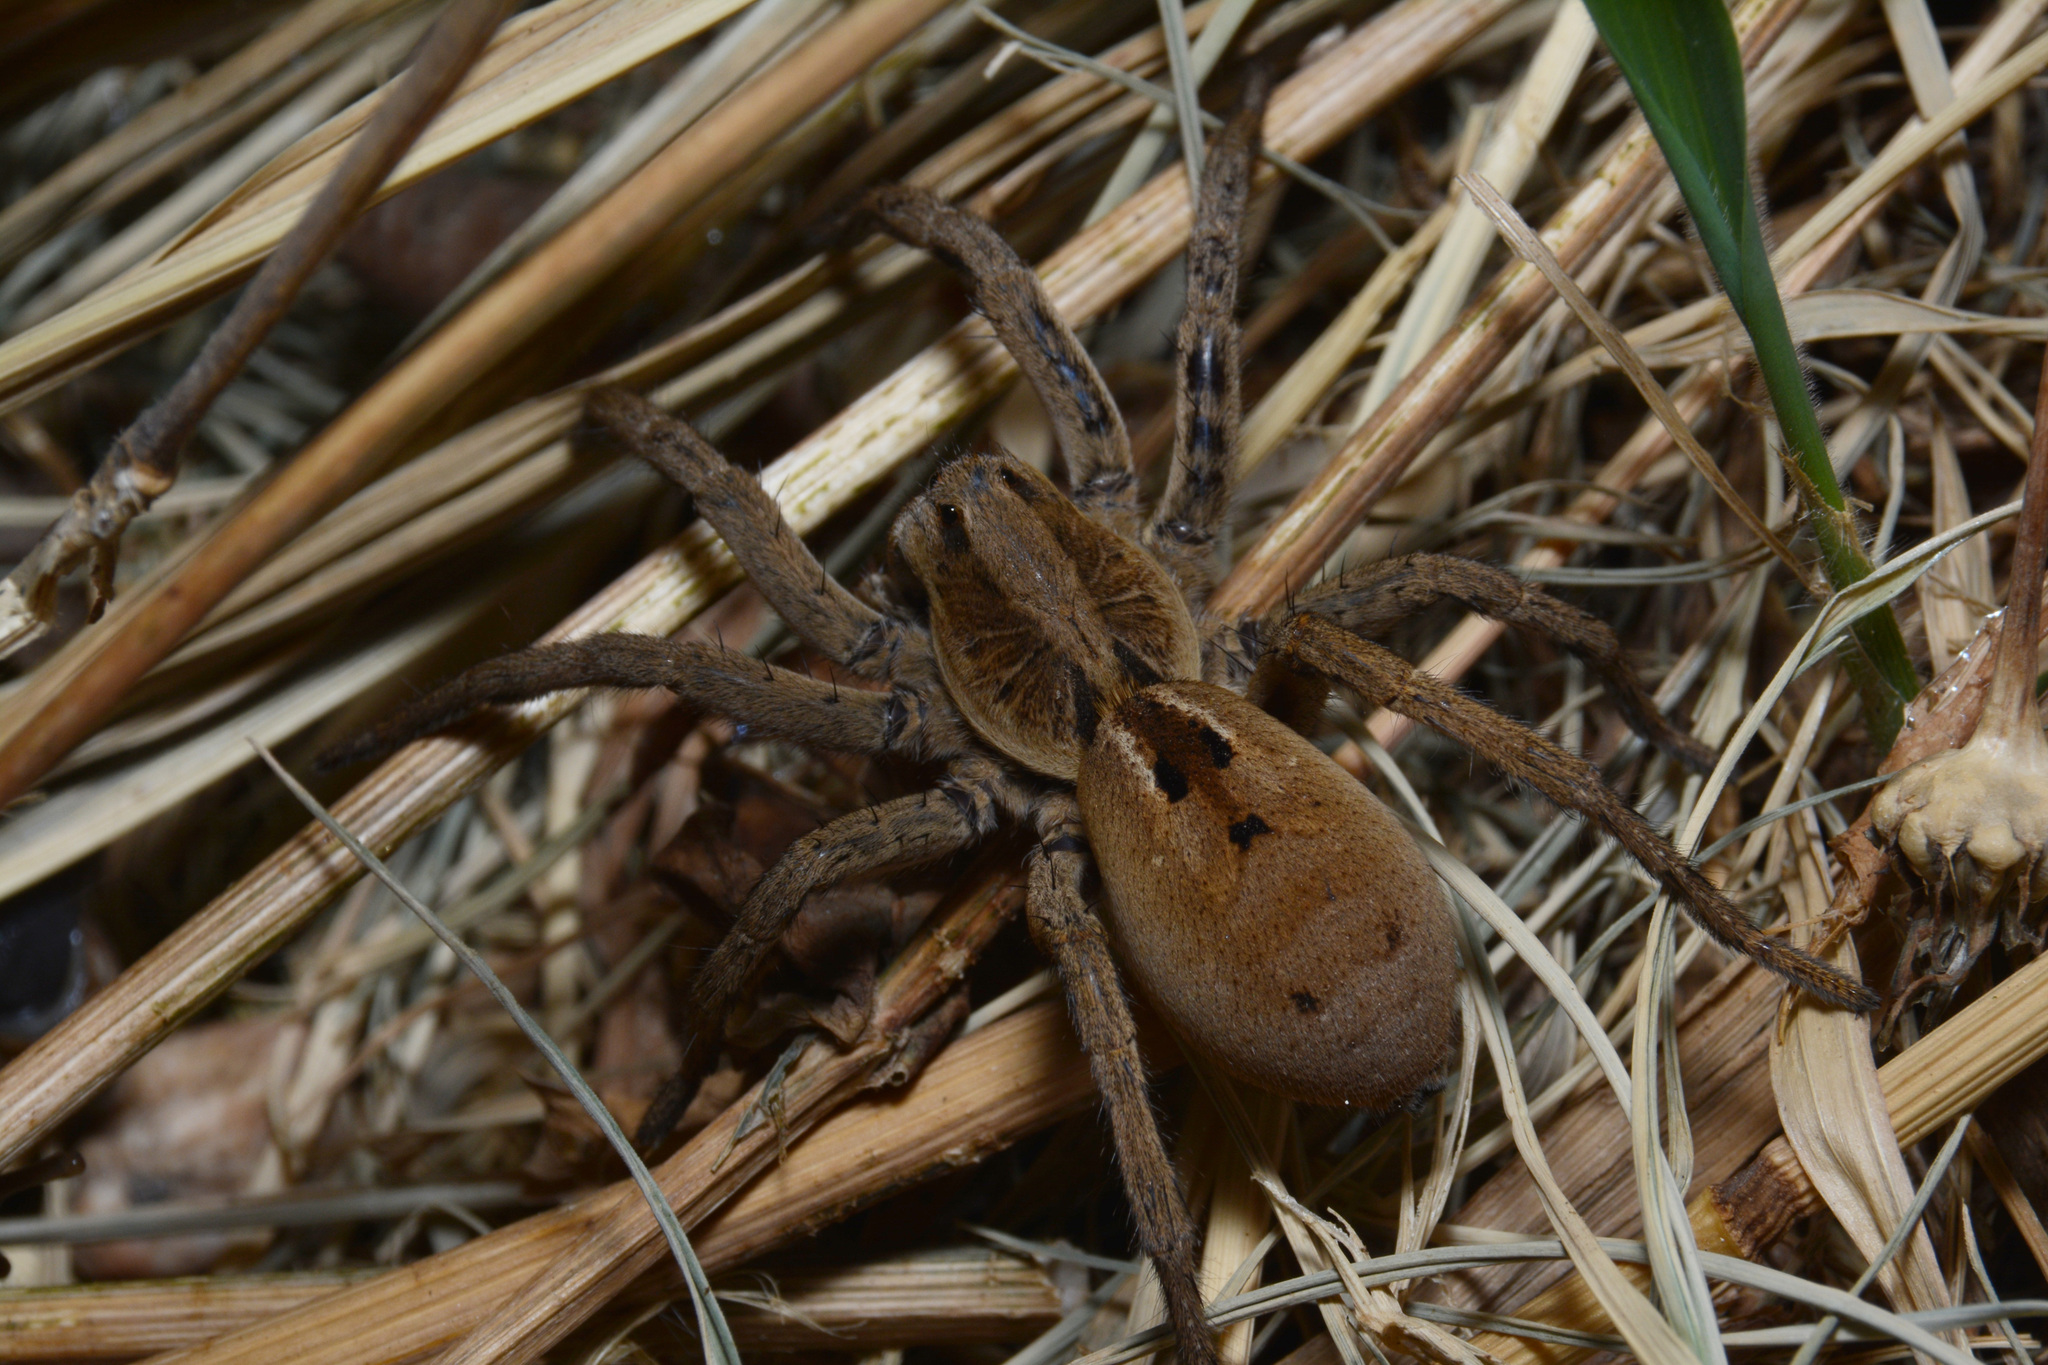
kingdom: Animalia
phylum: Arthropoda
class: Arachnida
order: Araneae
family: Lycosidae
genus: Lycosa
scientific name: Lycosa erythrognatha
